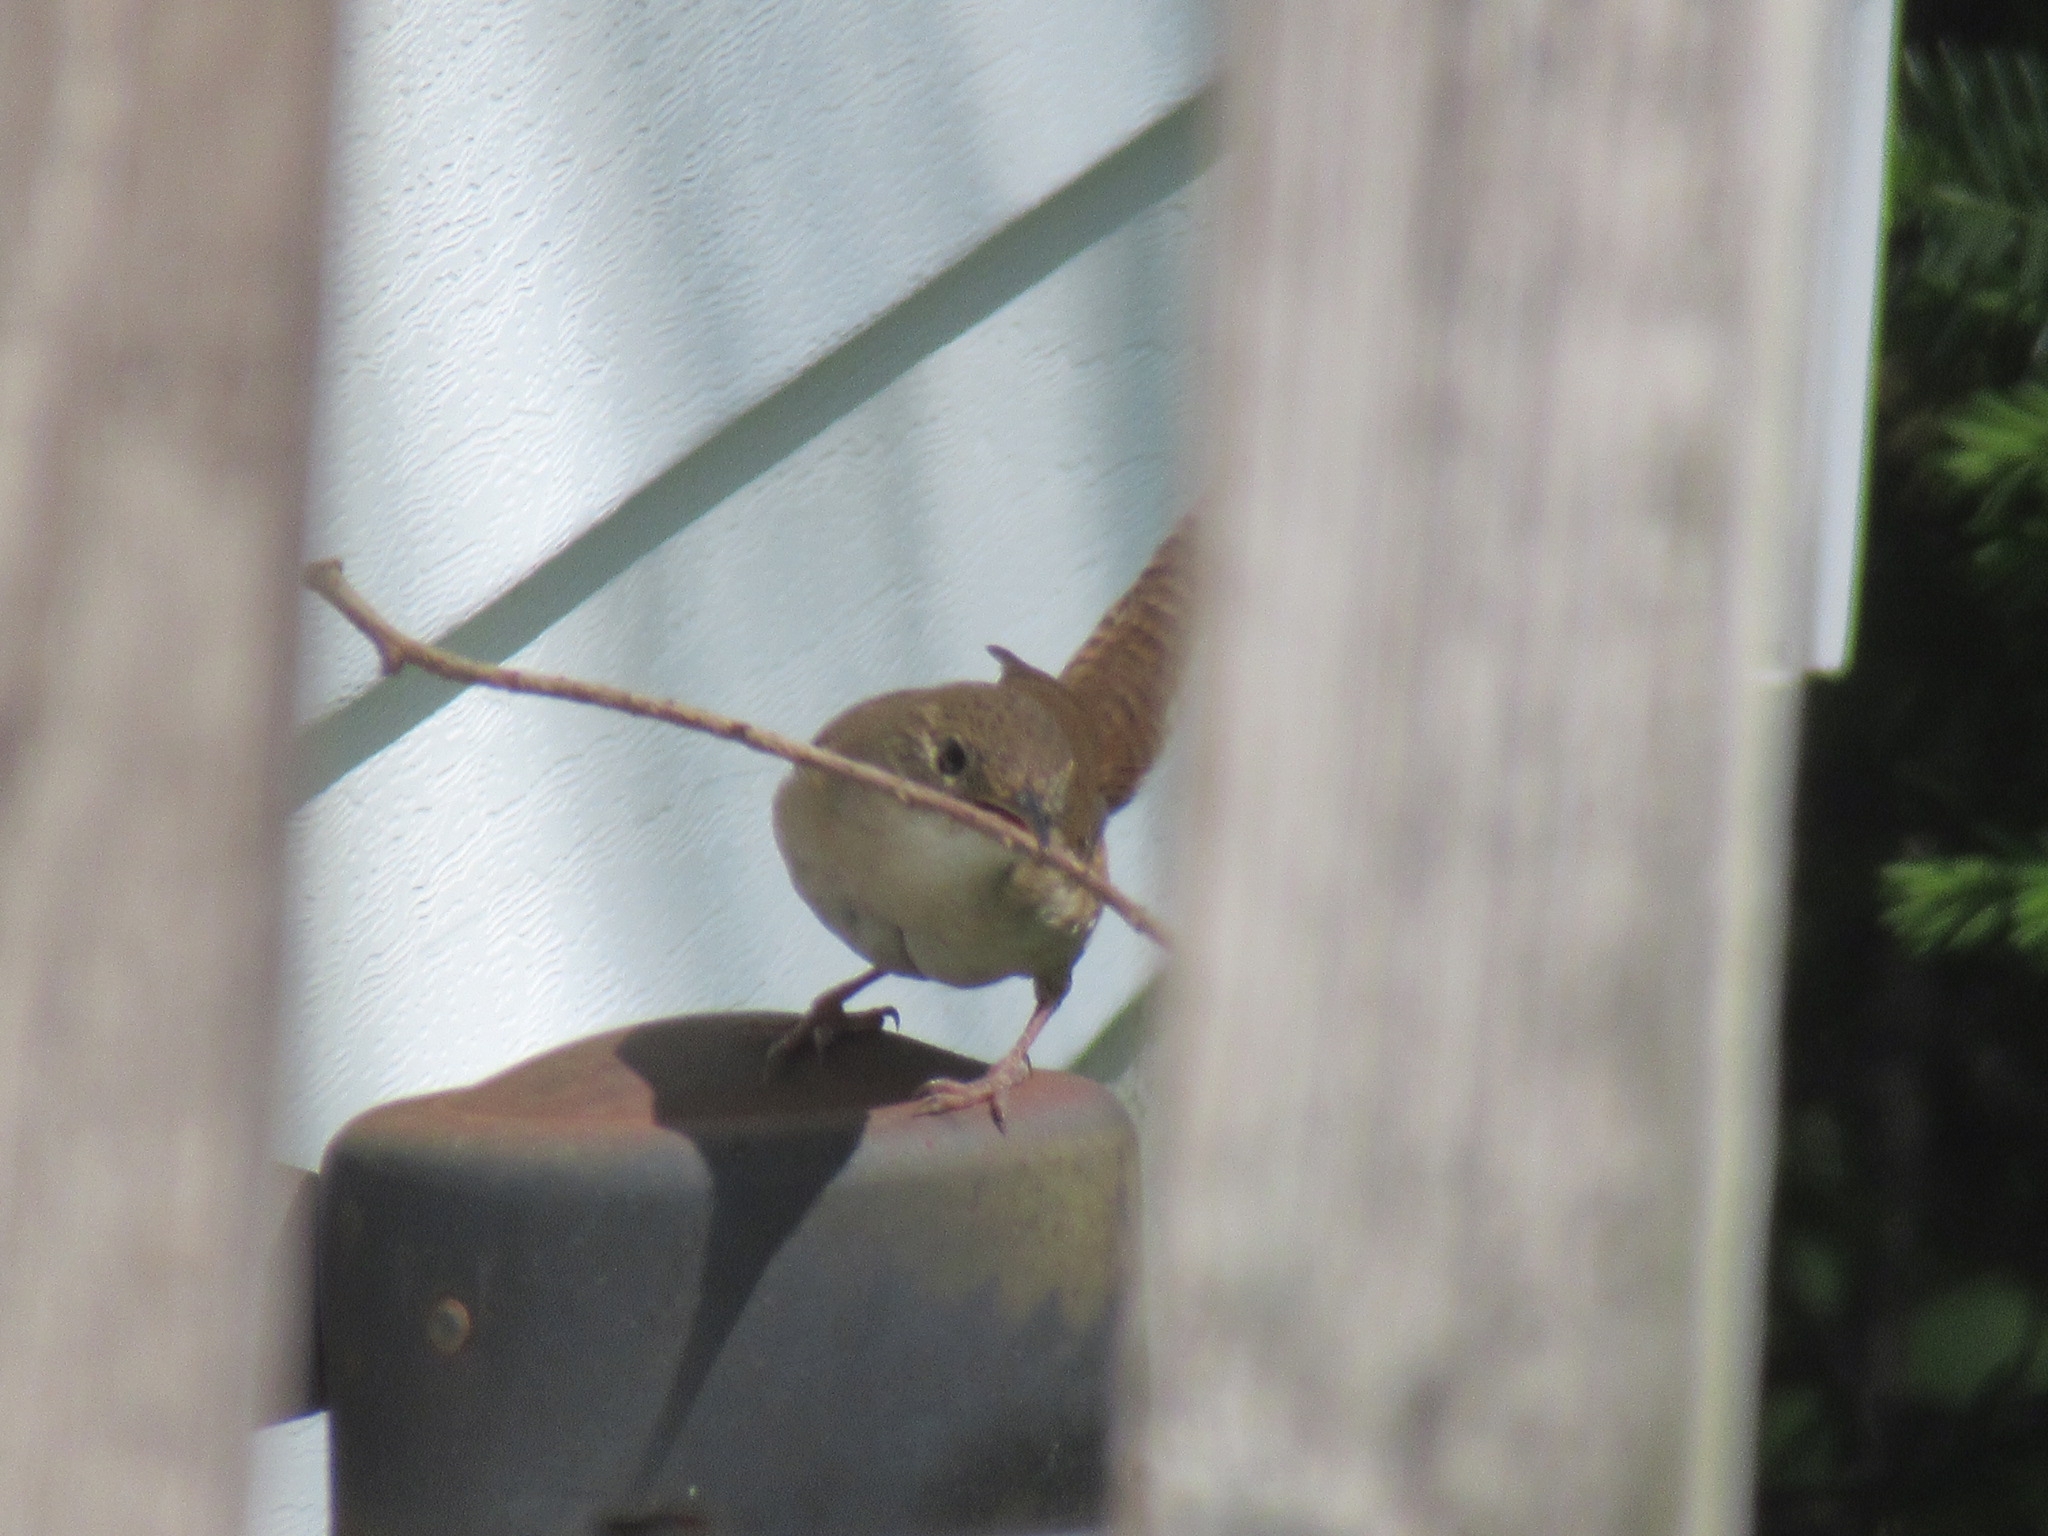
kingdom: Animalia
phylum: Chordata
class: Aves
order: Passeriformes
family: Troglodytidae
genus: Troglodytes
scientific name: Troglodytes aedon
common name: House wren
